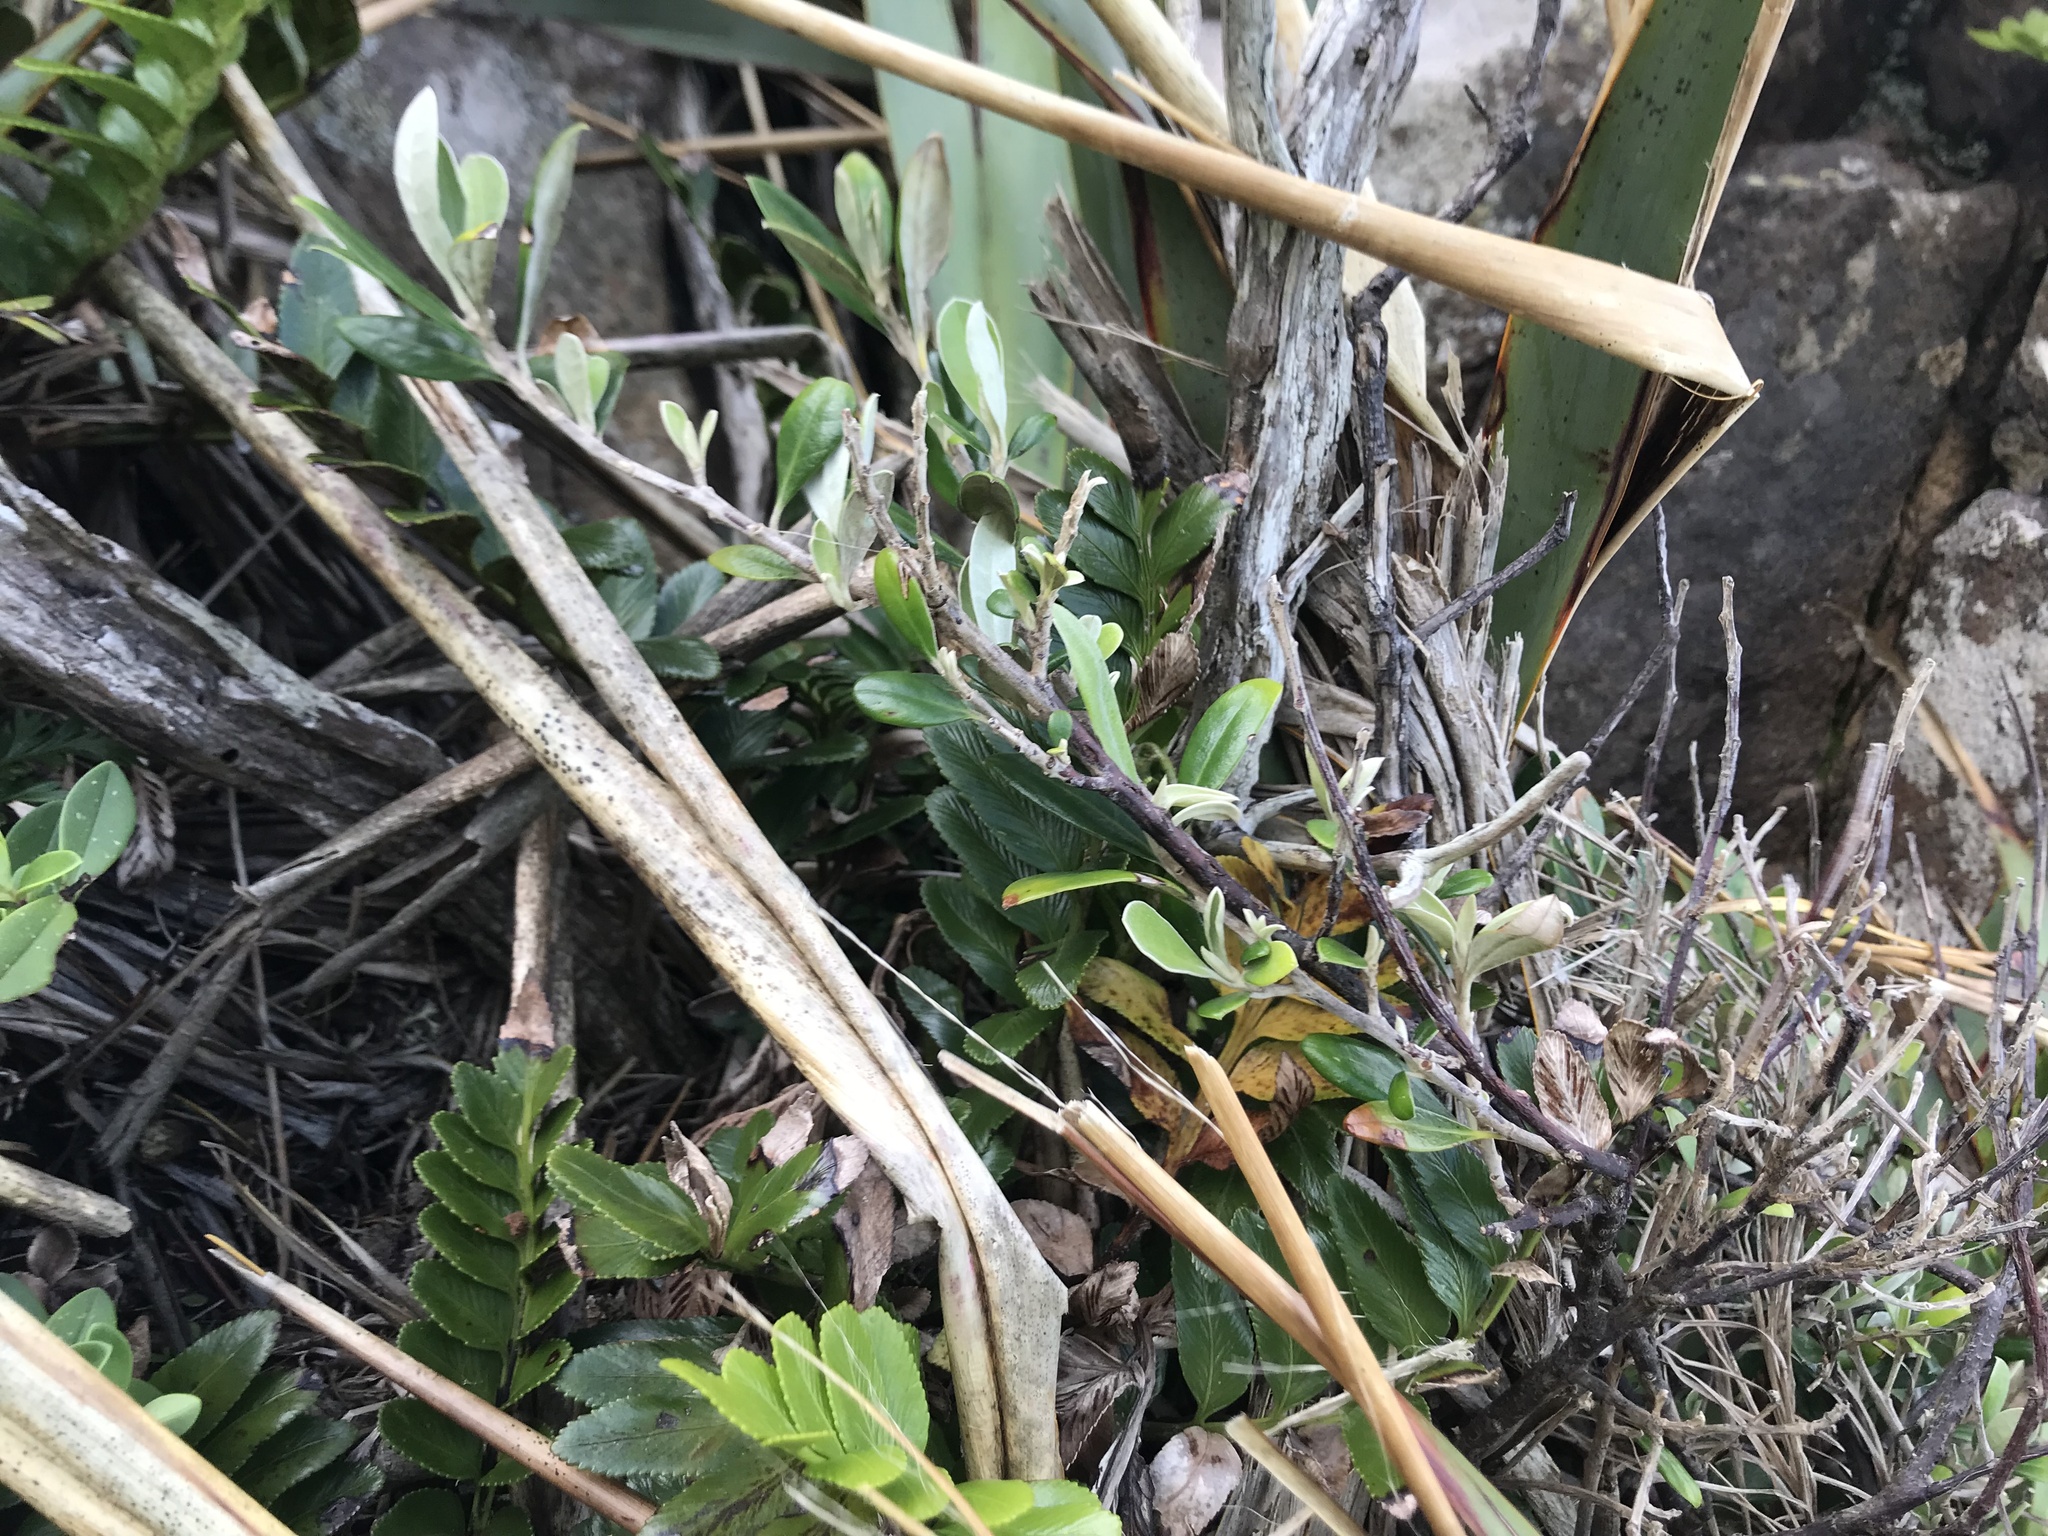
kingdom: Plantae
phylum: Tracheophyta
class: Magnoliopsida
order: Asterales
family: Argophyllaceae
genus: Corokia
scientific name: Corokia macrocarpa
